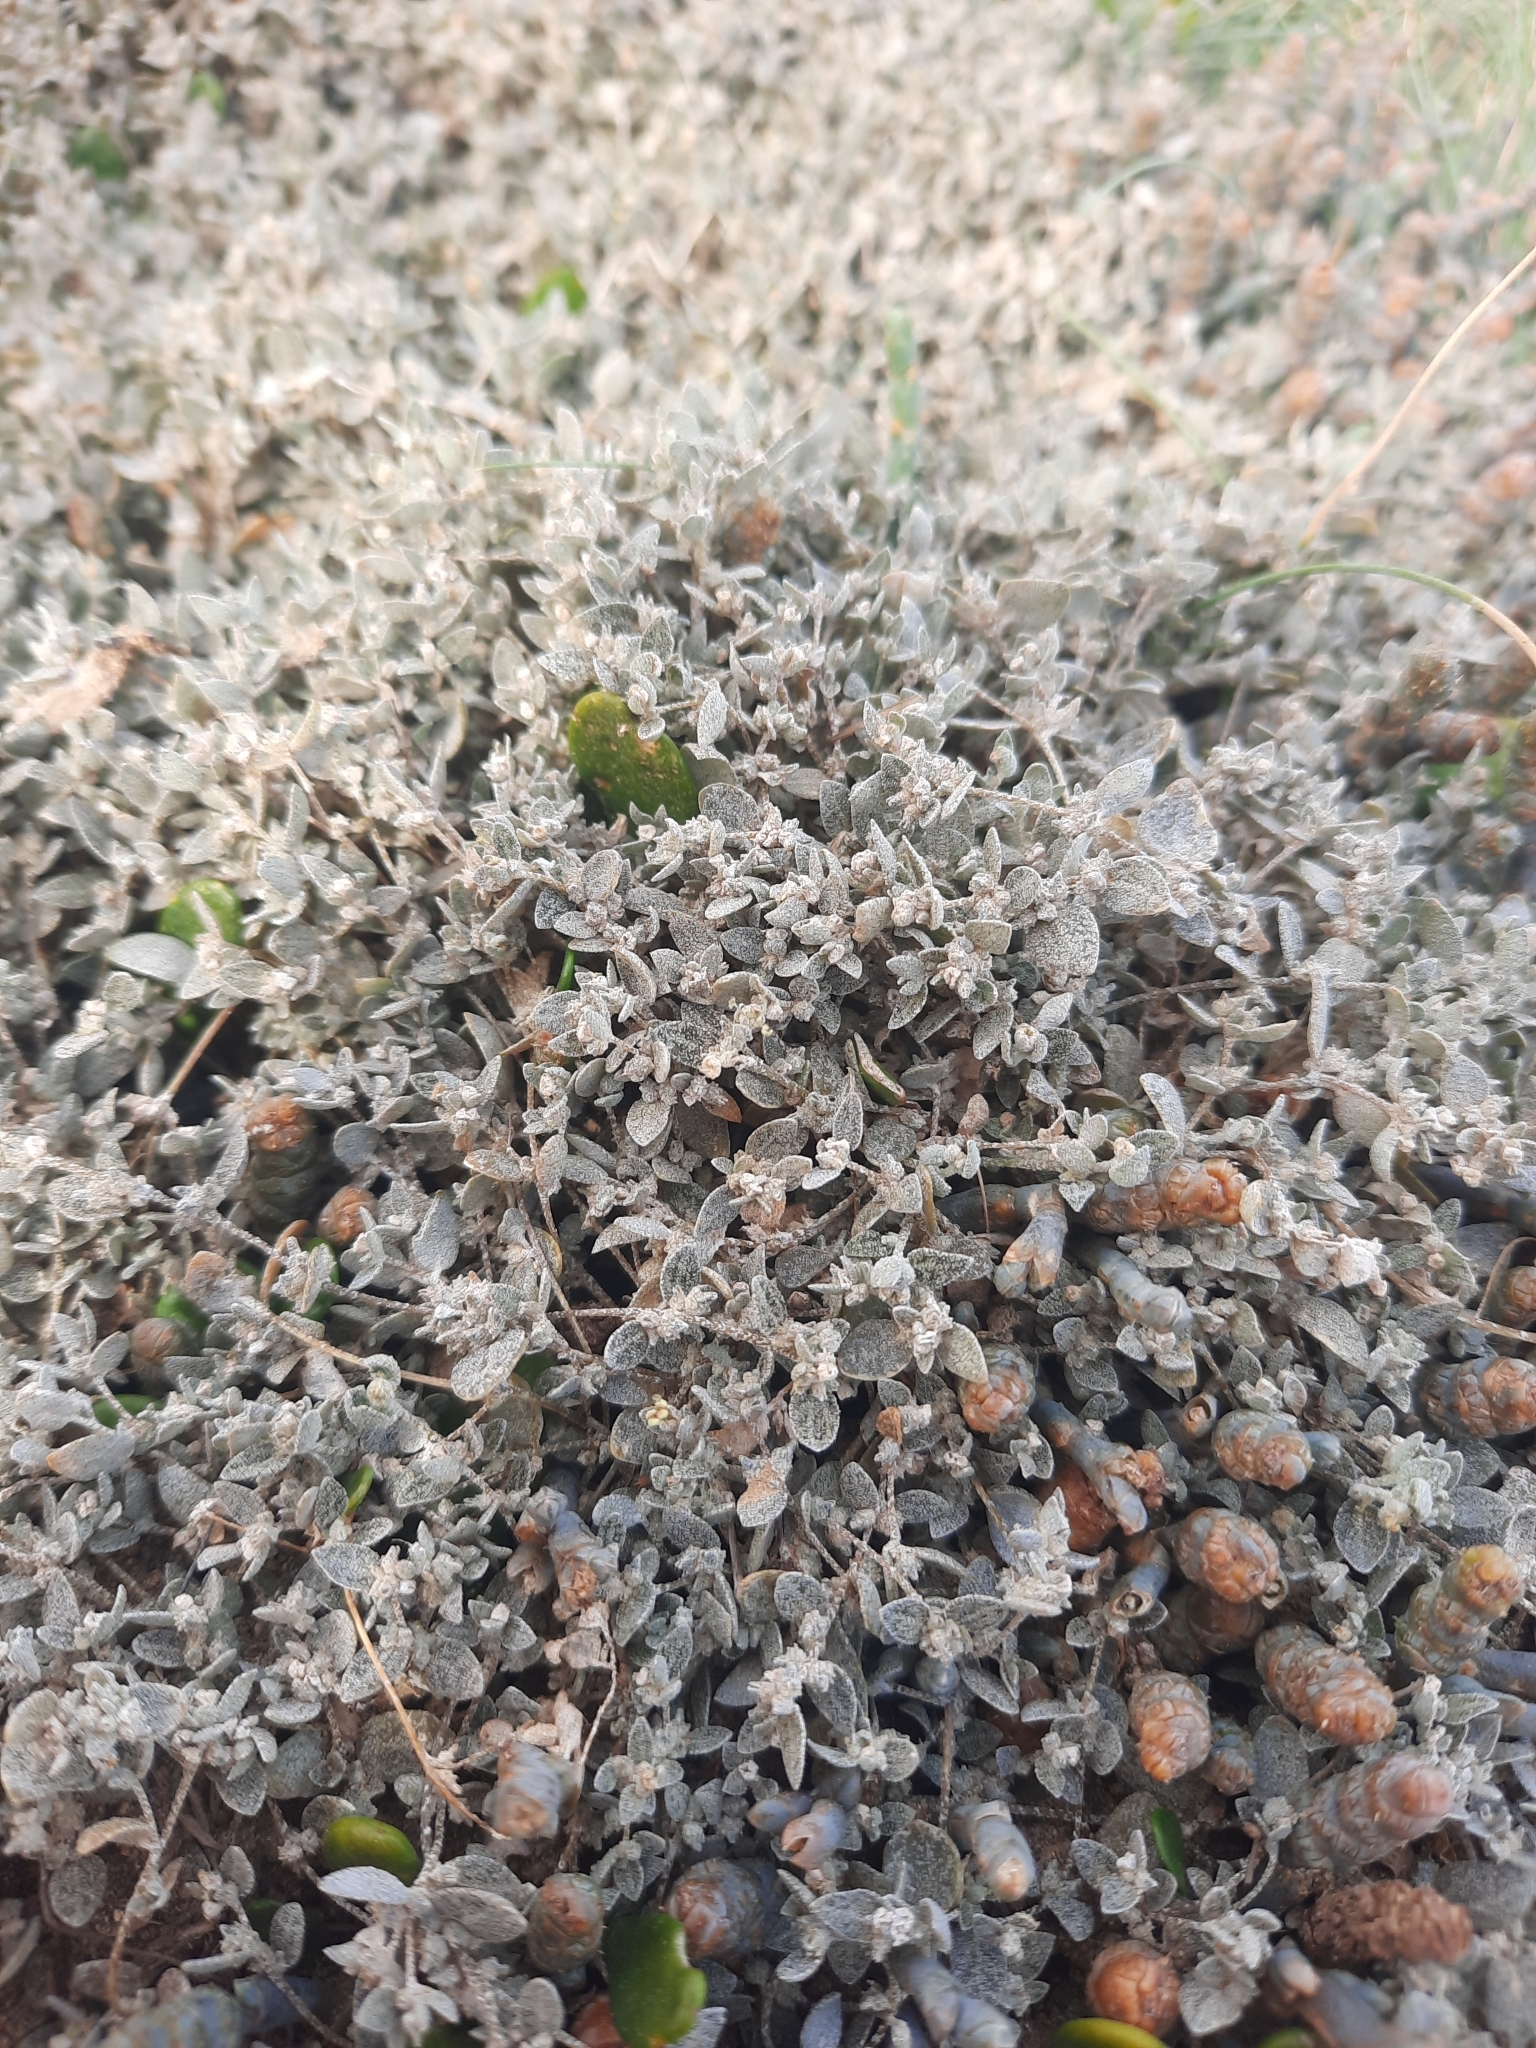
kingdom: Plantae
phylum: Tracheophyta
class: Magnoliopsida
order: Caryophyllales
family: Amaranthaceae
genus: Atriplex
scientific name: Atriplex buchananii
